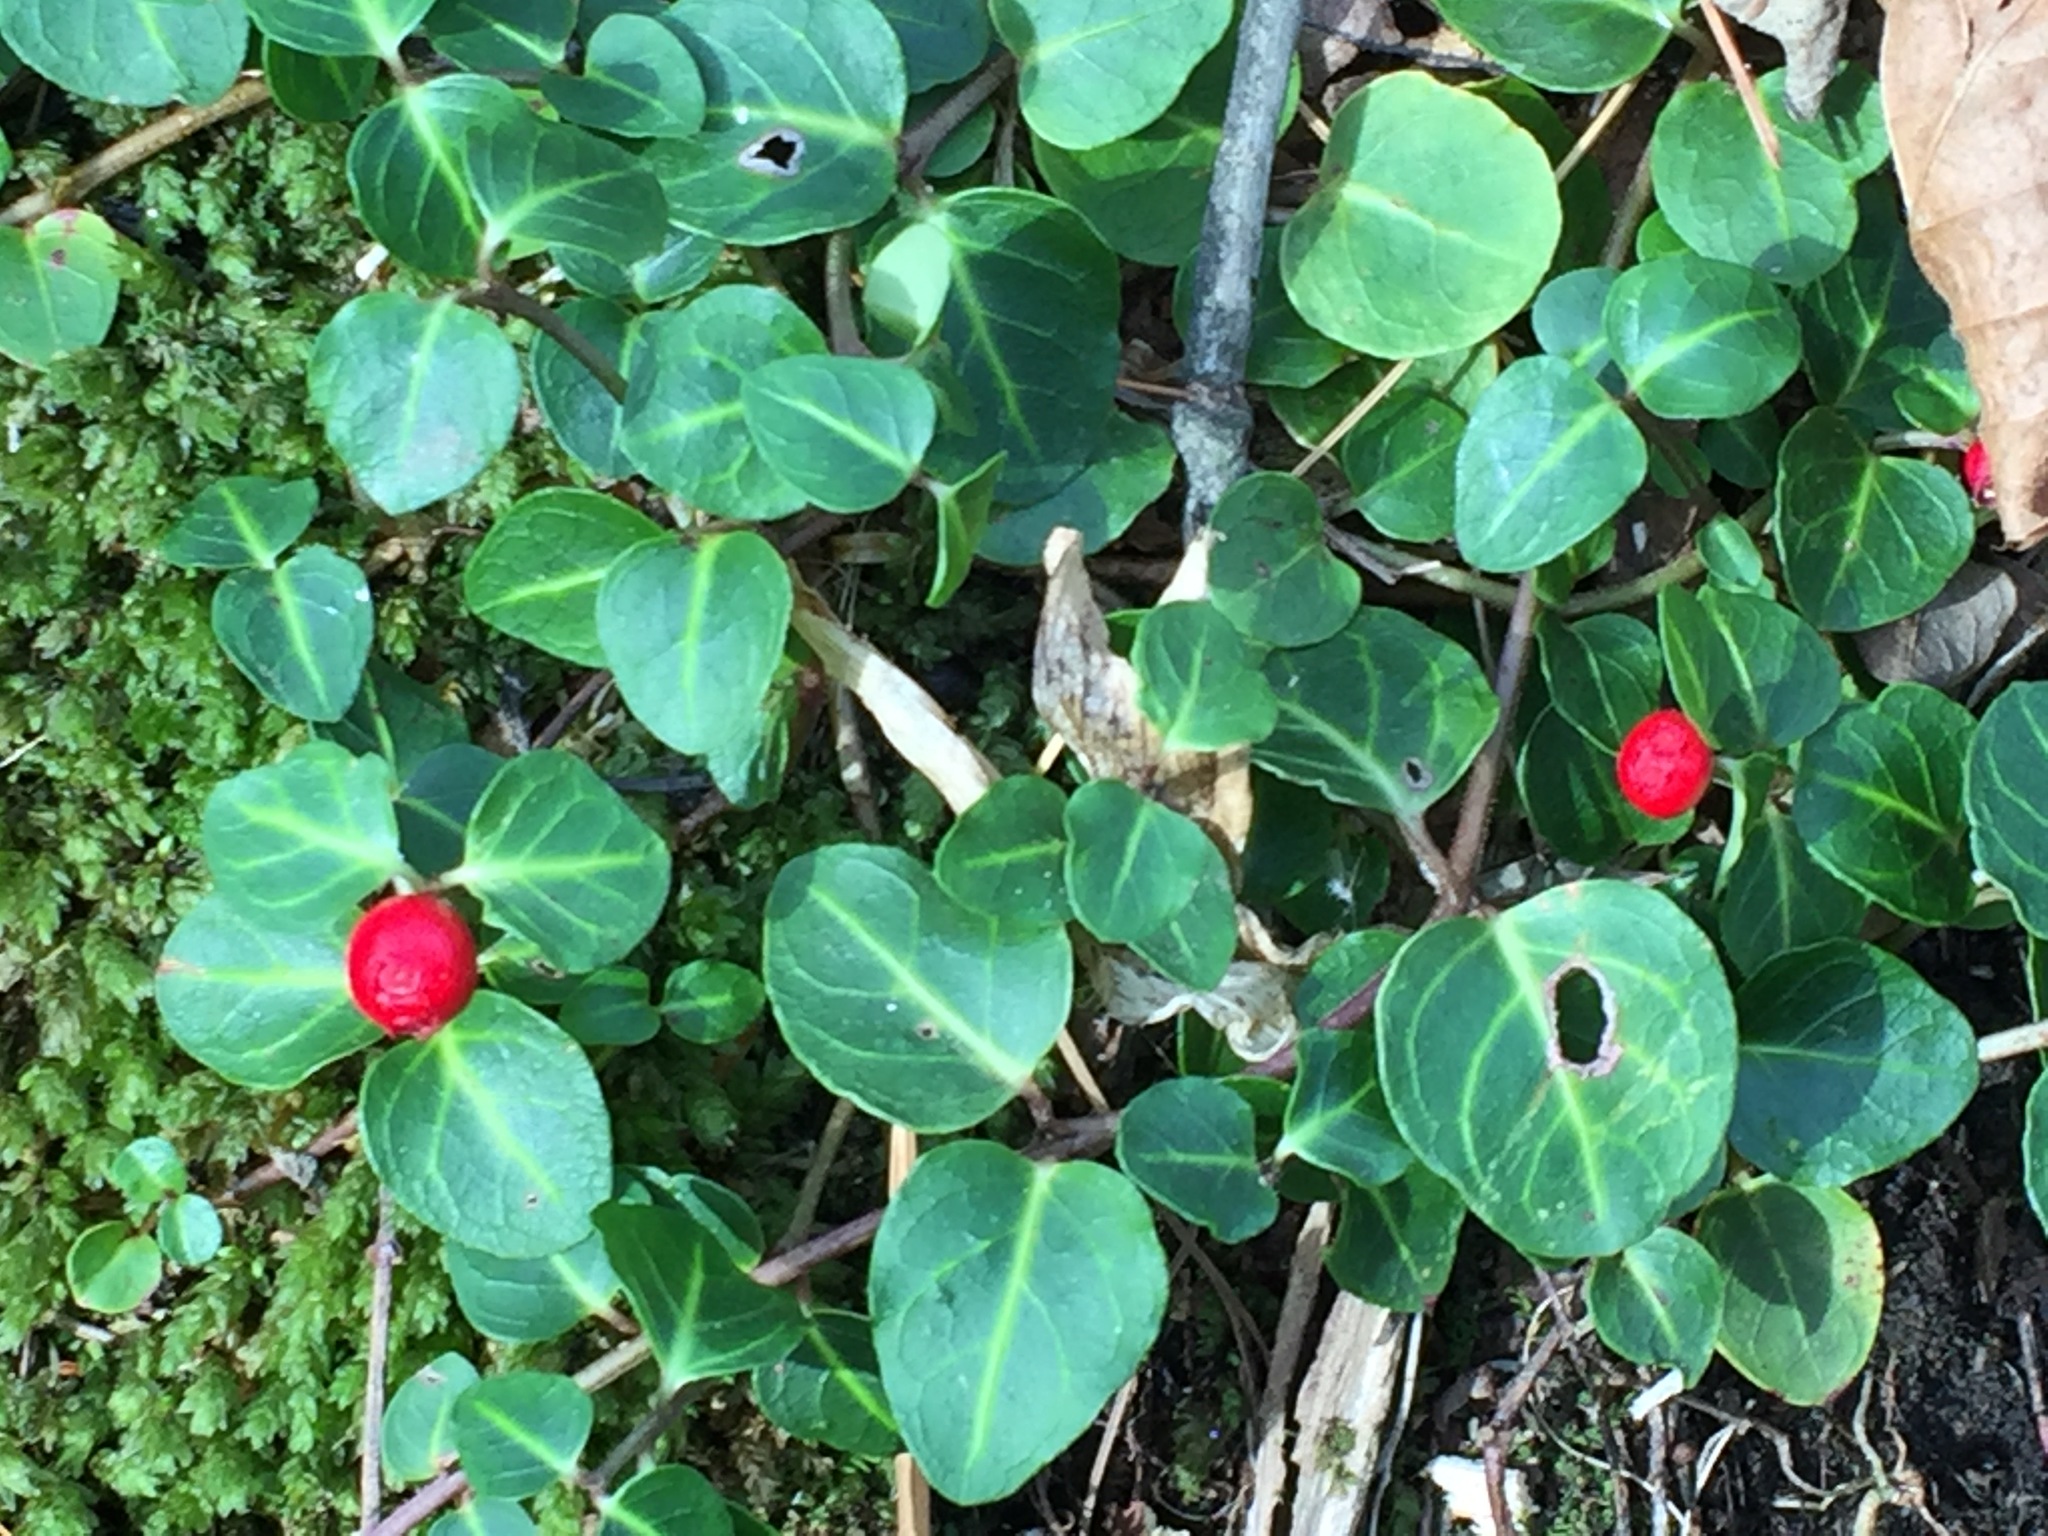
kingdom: Plantae
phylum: Tracheophyta
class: Magnoliopsida
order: Gentianales
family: Rubiaceae
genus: Mitchella
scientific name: Mitchella repens
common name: Partridge-berry
